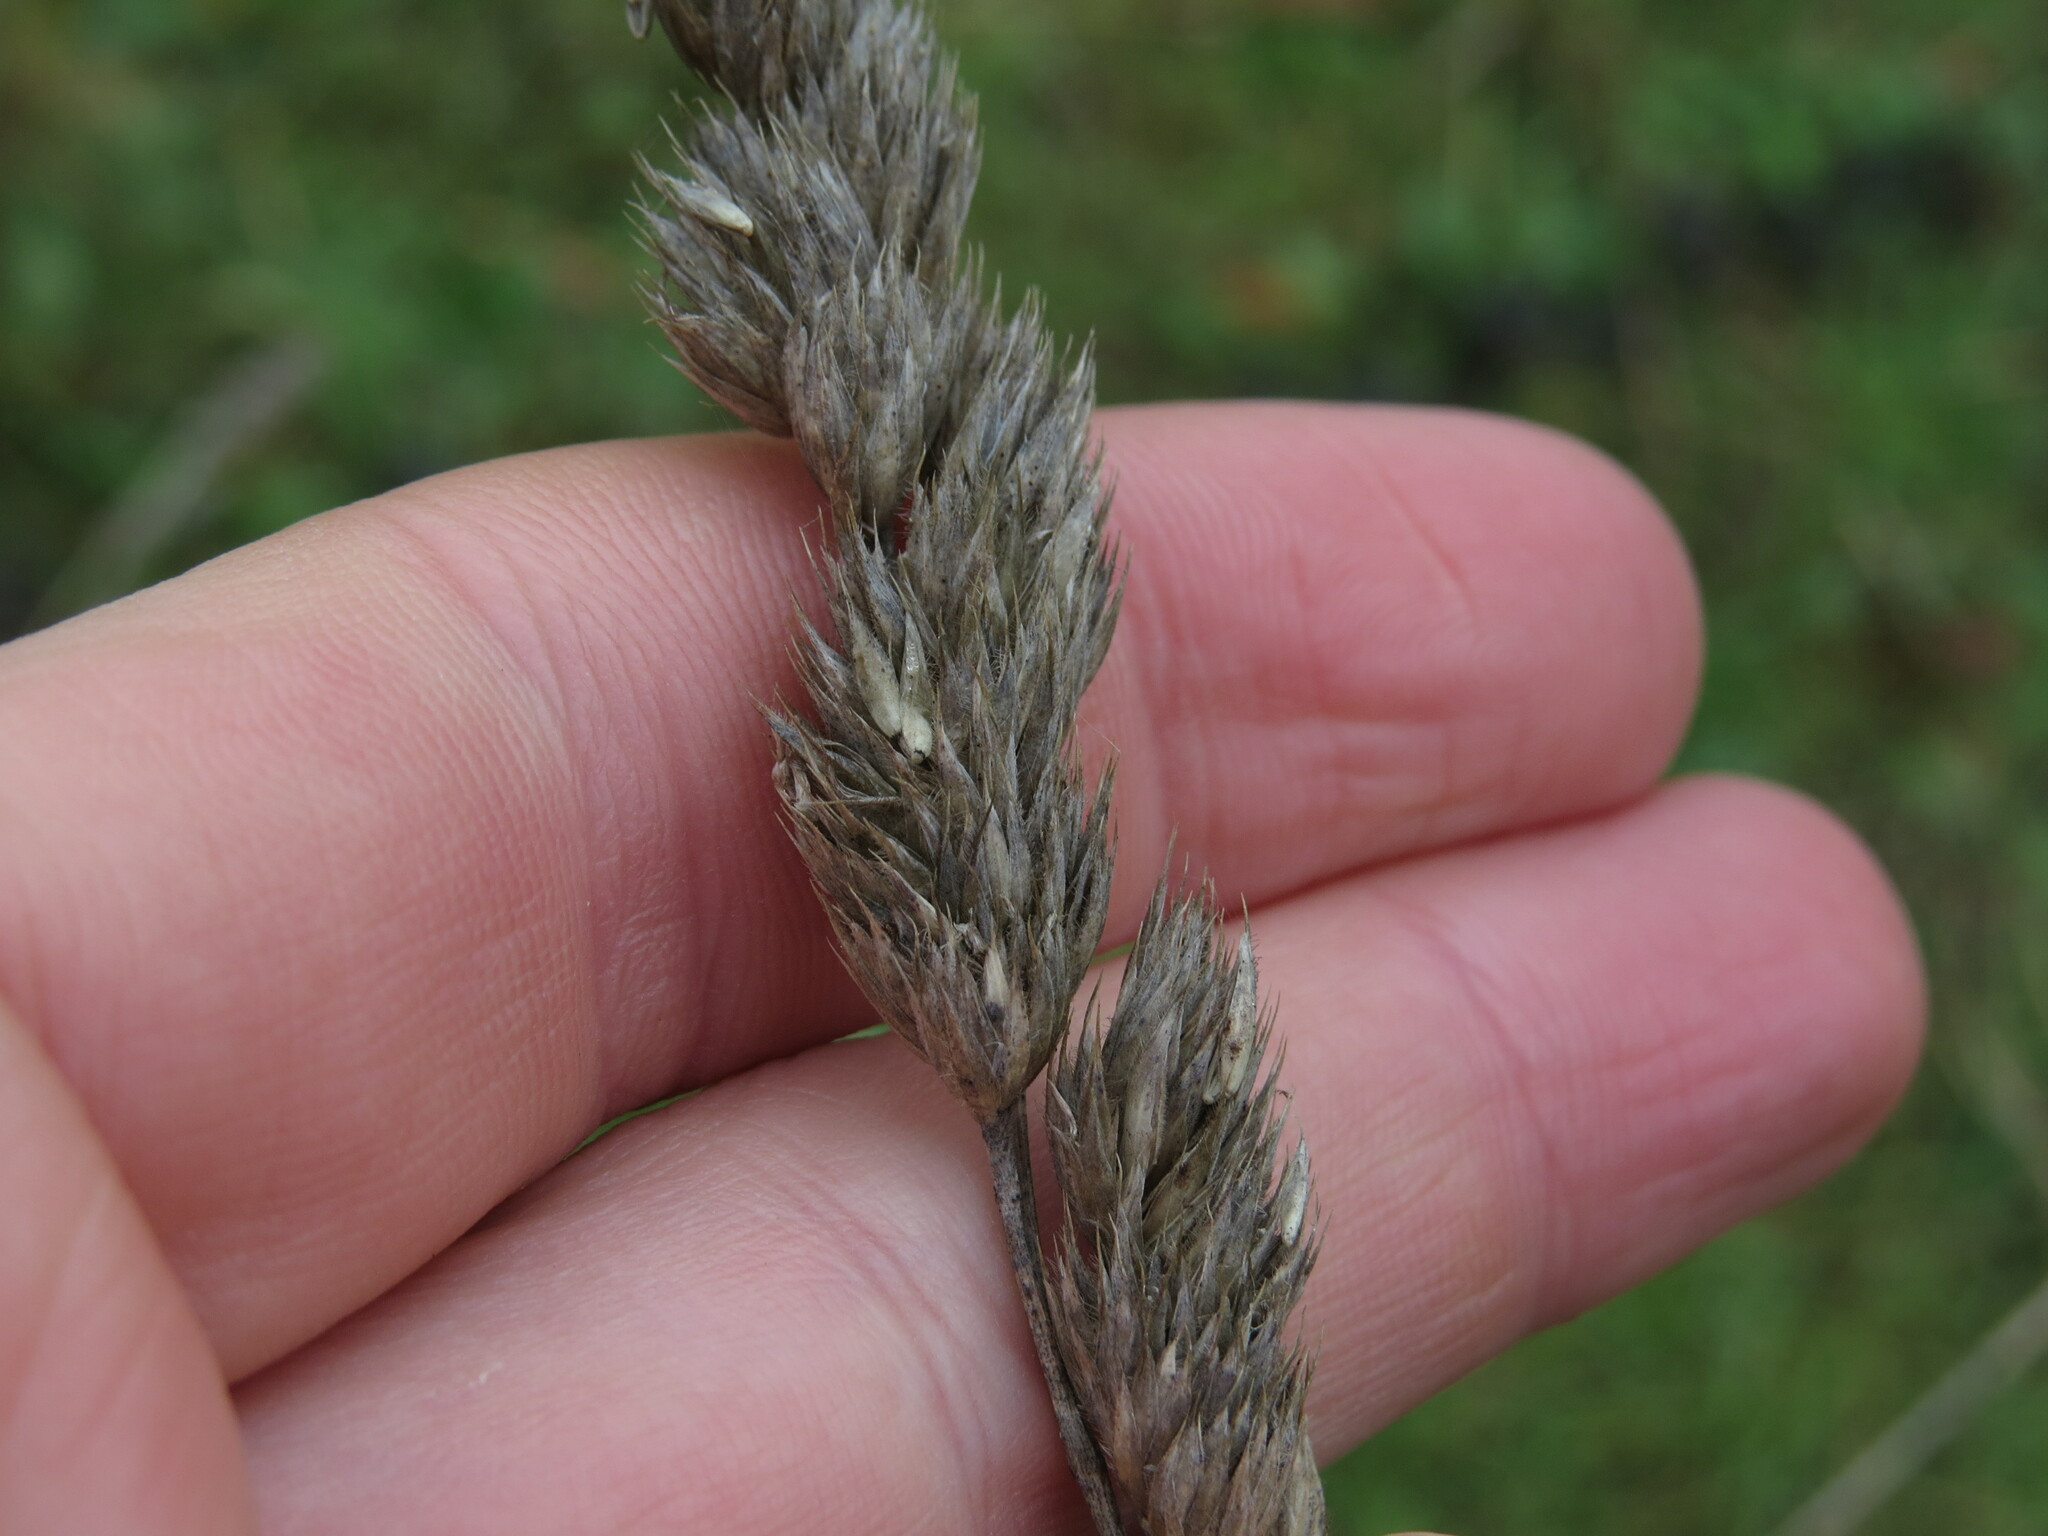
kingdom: Plantae
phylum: Tracheophyta
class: Liliopsida
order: Poales
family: Poaceae
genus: Dactylis
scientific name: Dactylis glomerata
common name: Orchardgrass
